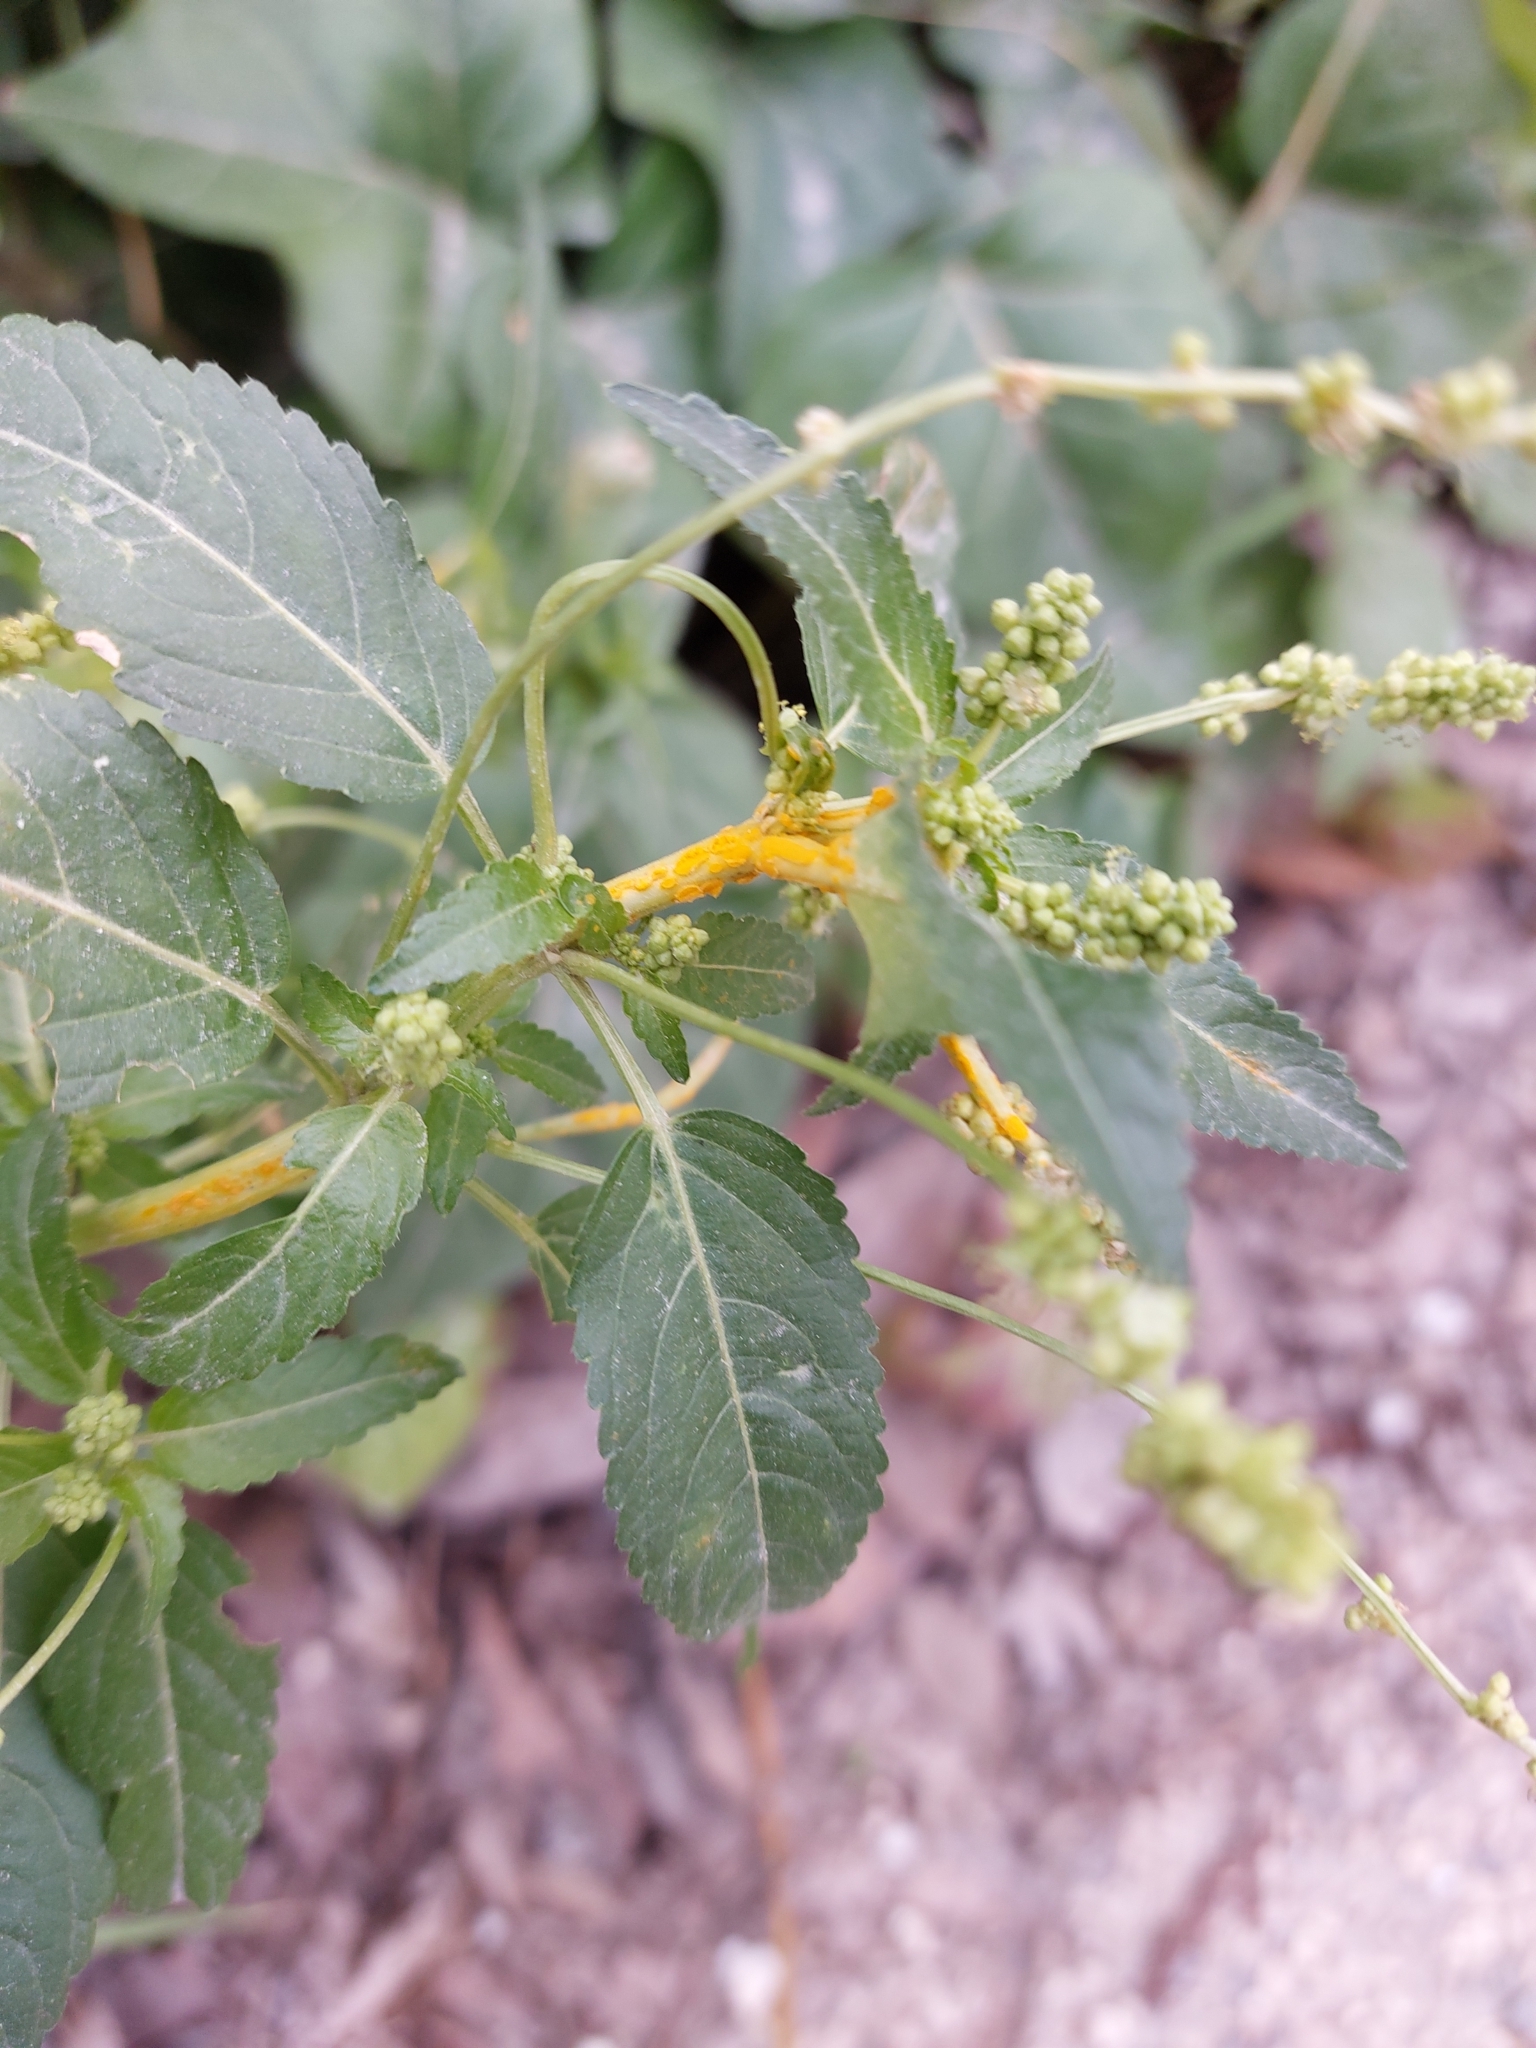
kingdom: Fungi
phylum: Basidiomycota
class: Pucciniomycetes
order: Pucciniales
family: Melampsoraceae
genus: Melampsora
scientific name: Melampsora pulcherrima
